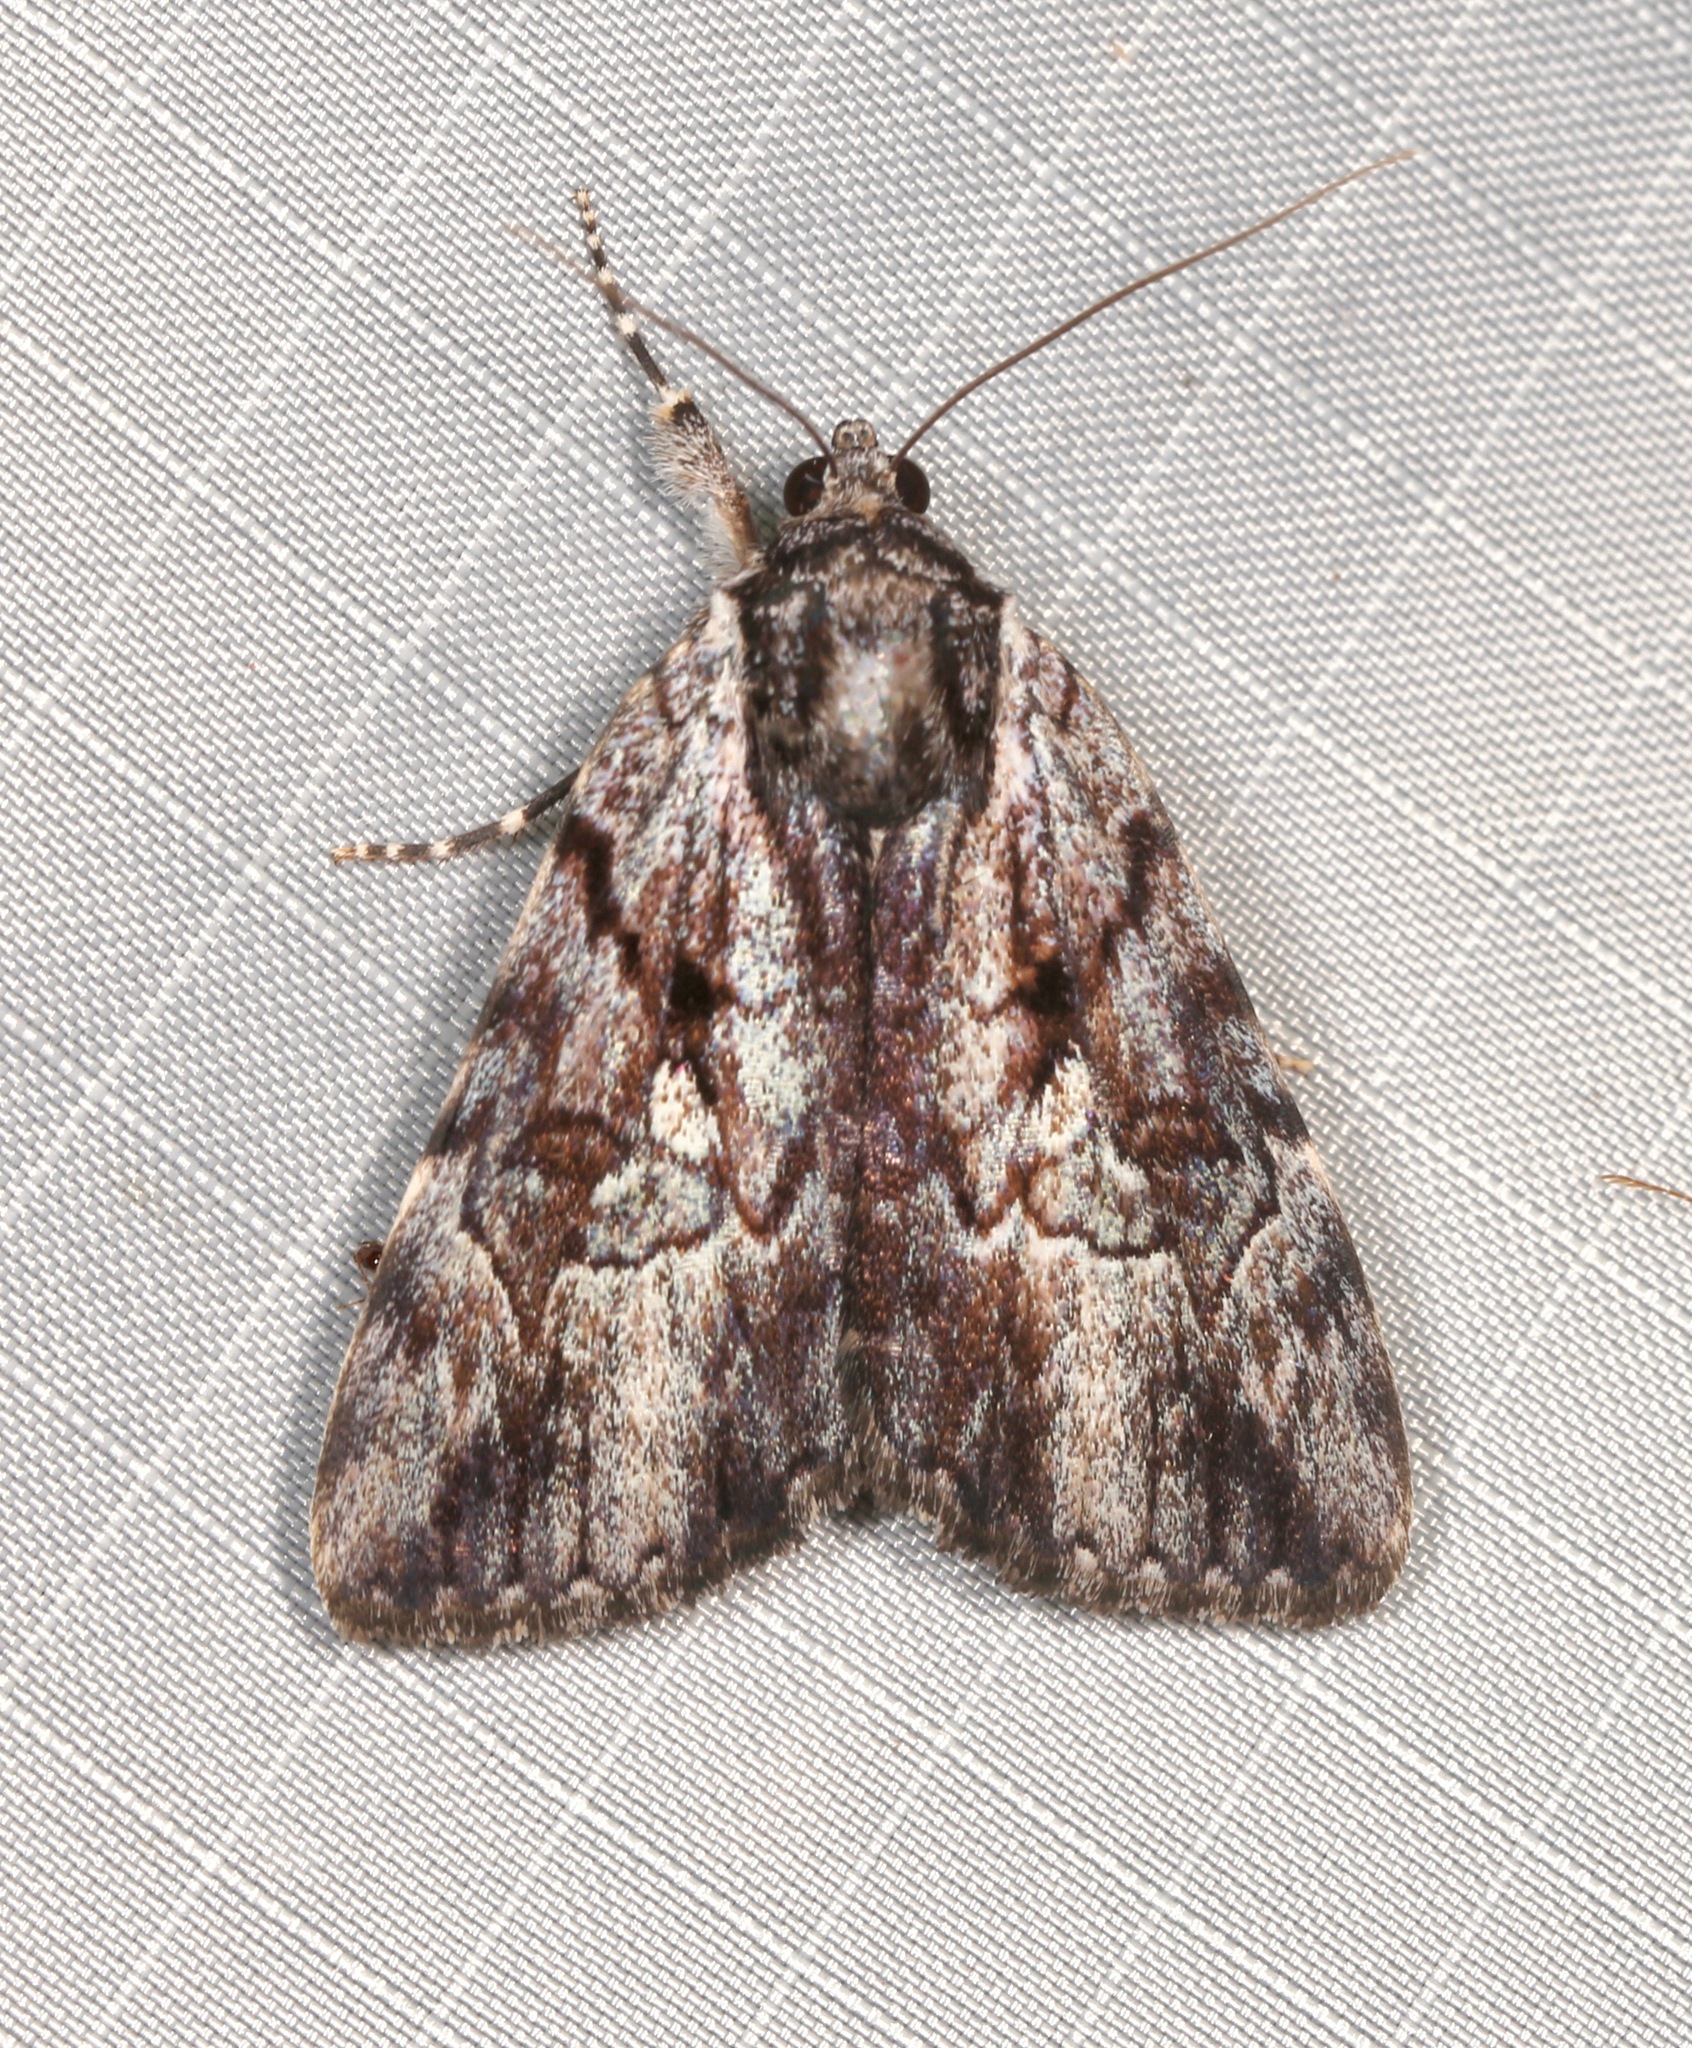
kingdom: Animalia
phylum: Arthropoda
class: Insecta
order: Lepidoptera
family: Erebidae
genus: Catocala
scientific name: Catocala louiseae
